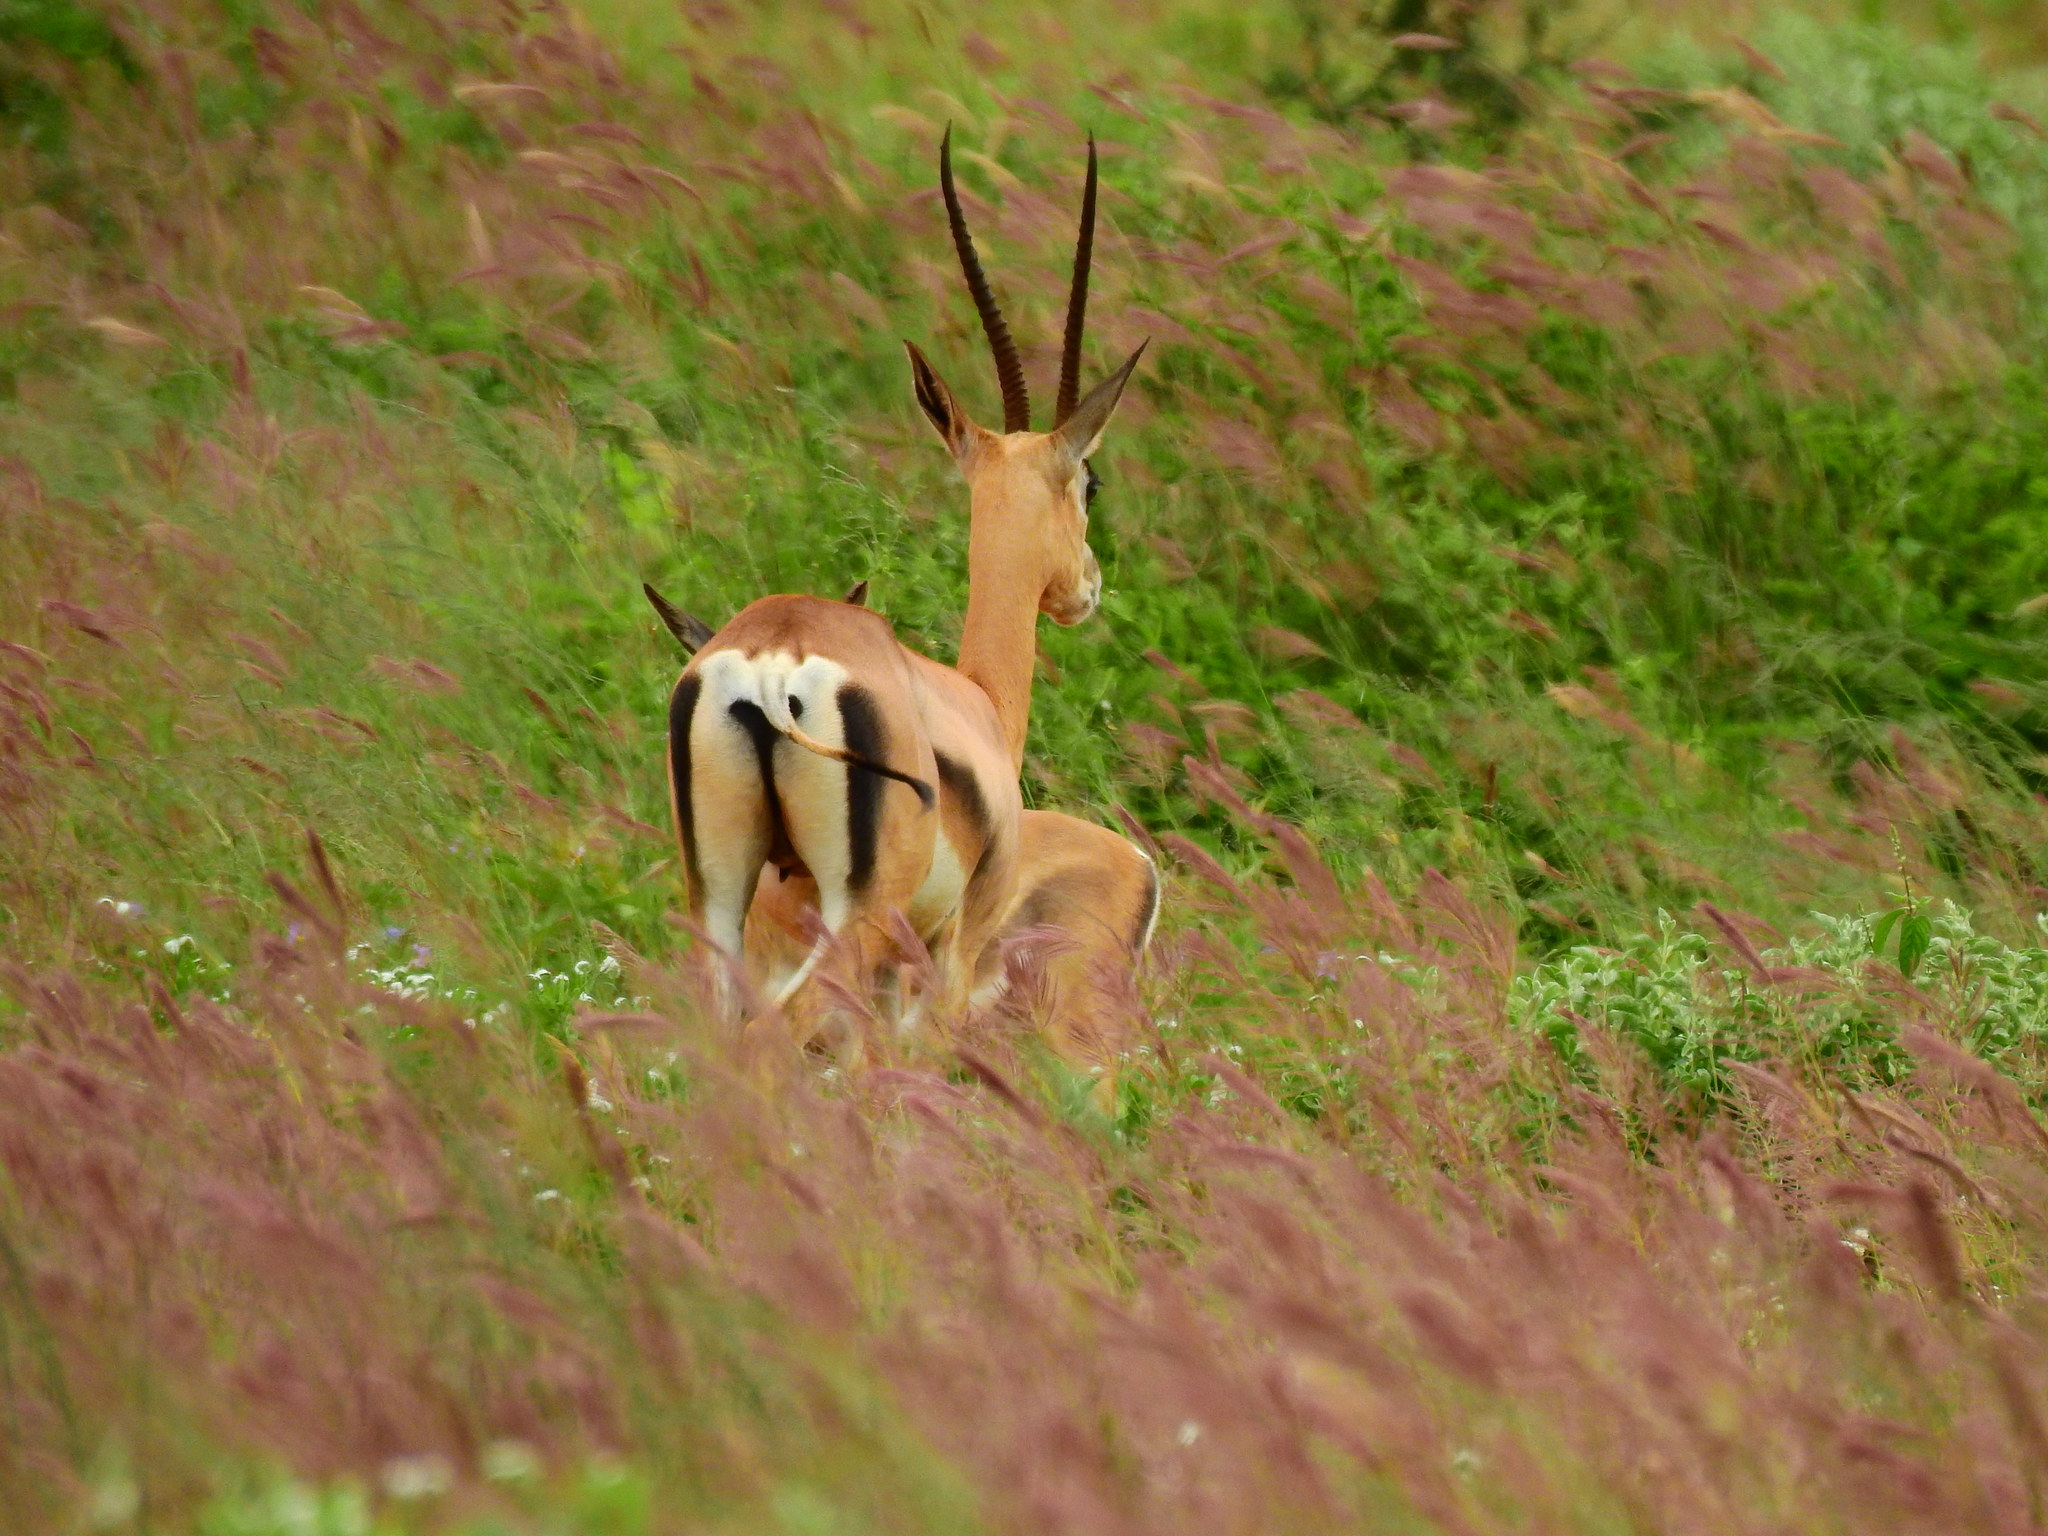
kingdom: Animalia
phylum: Chordata
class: Mammalia
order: Artiodactyla
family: Bovidae
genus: Nanger
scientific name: Nanger granti
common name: Grant's gazelle
